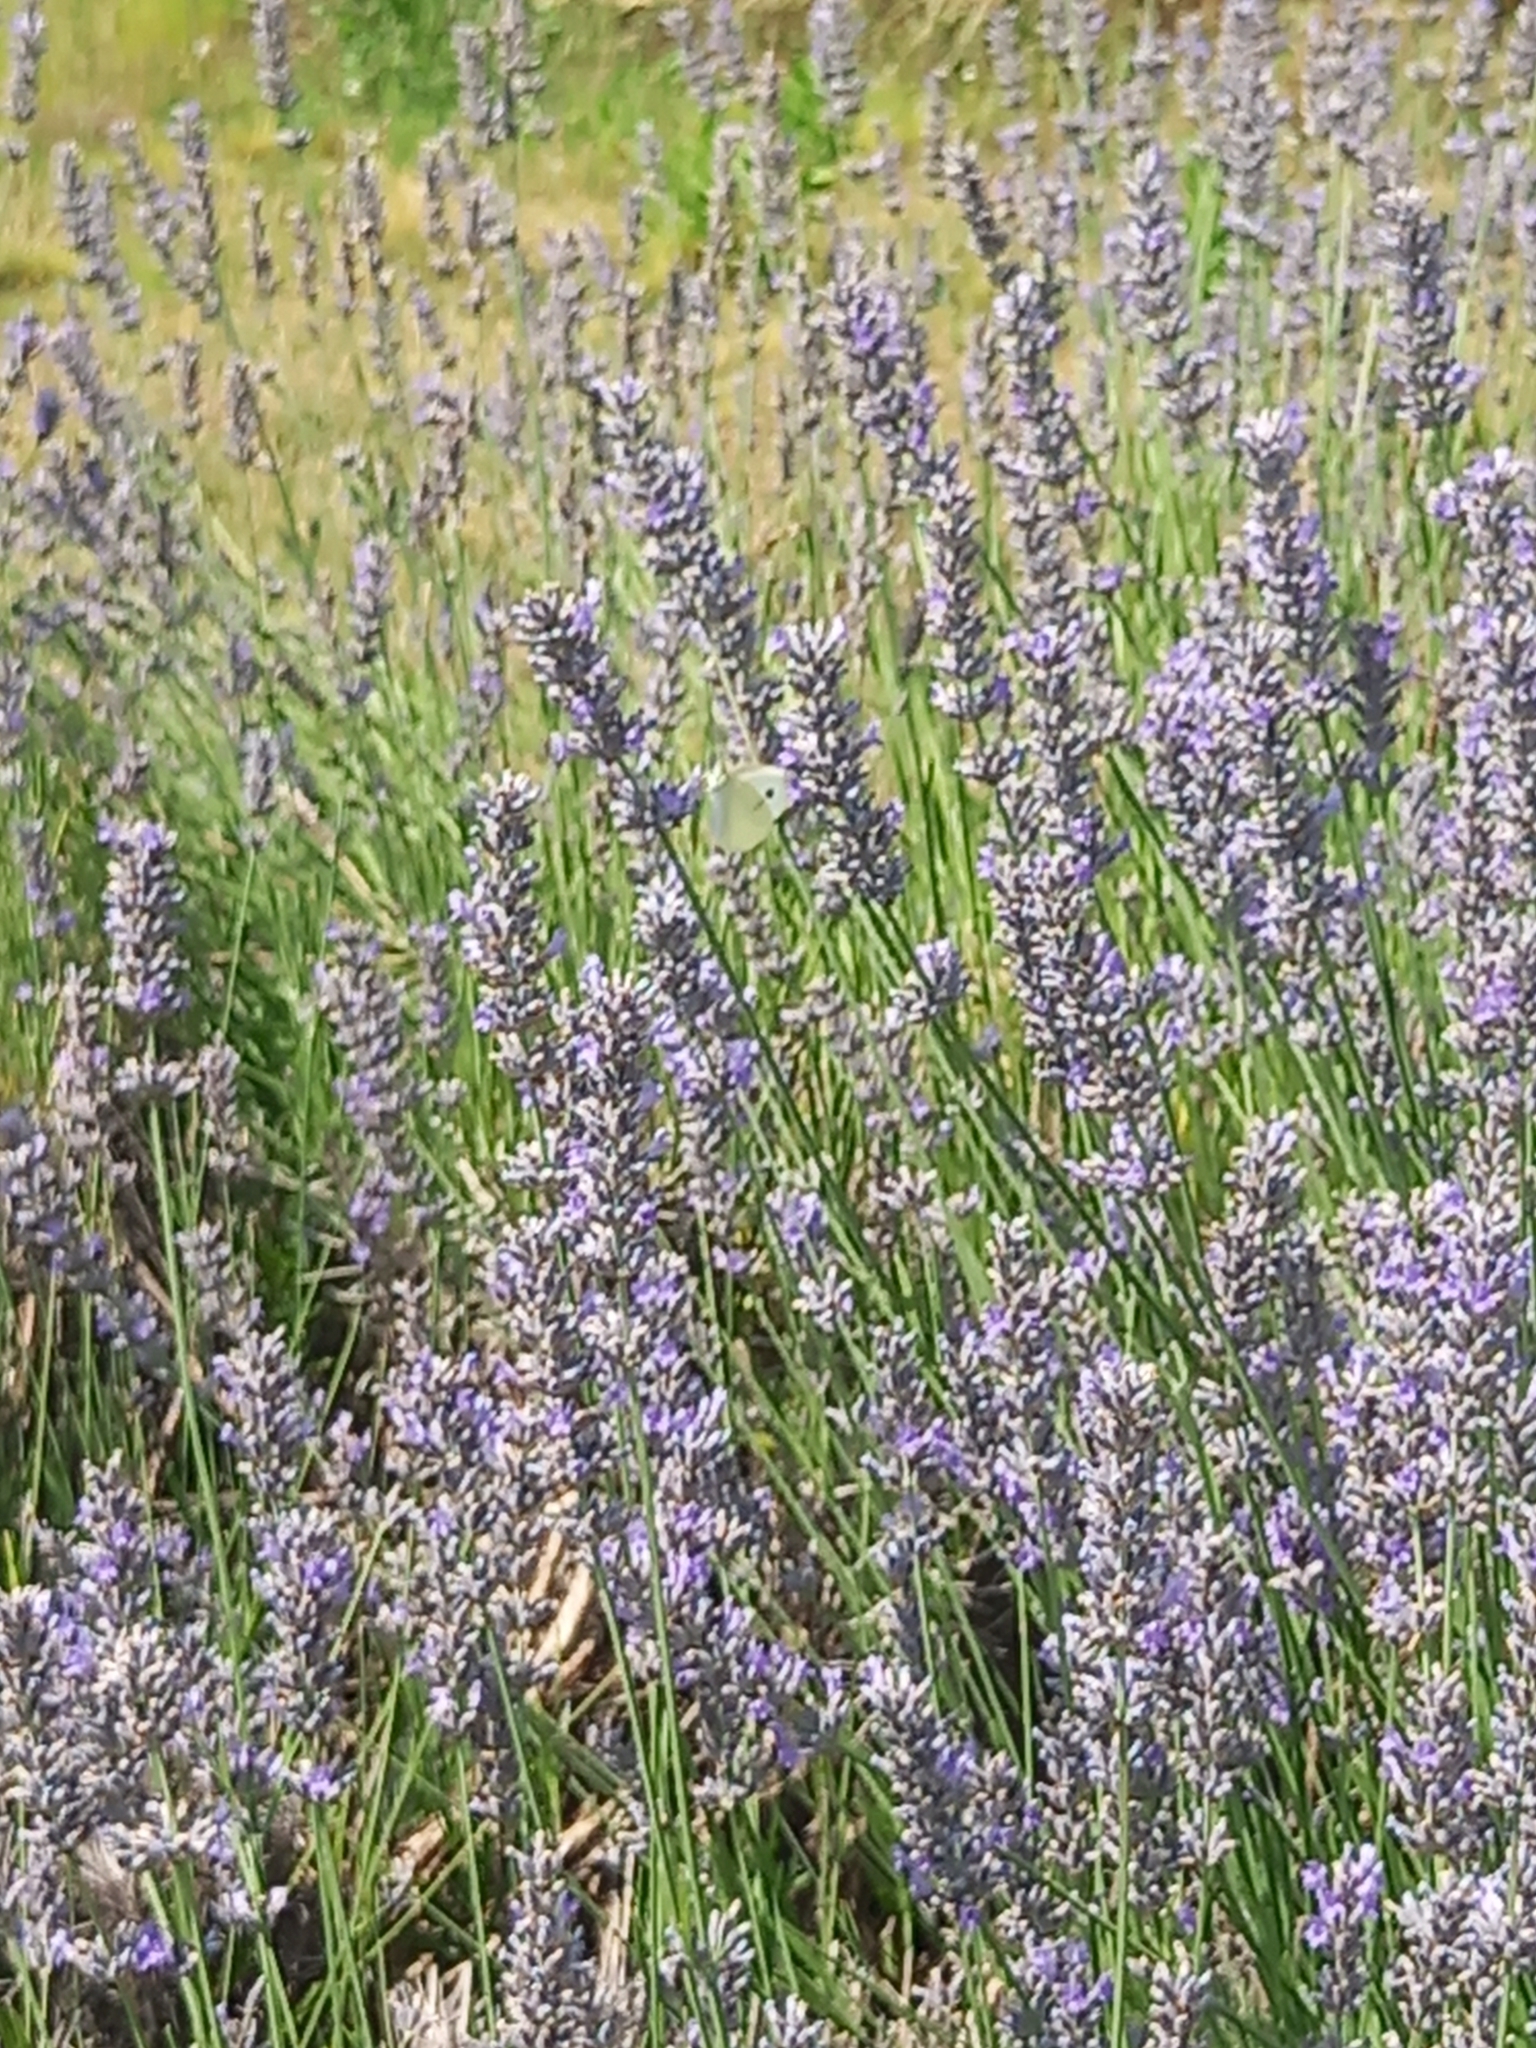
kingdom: Animalia
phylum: Arthropoda
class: Insecta
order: Lepidoptera
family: Pieridae
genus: Pieris
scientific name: Pieris rapae
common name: Small white
